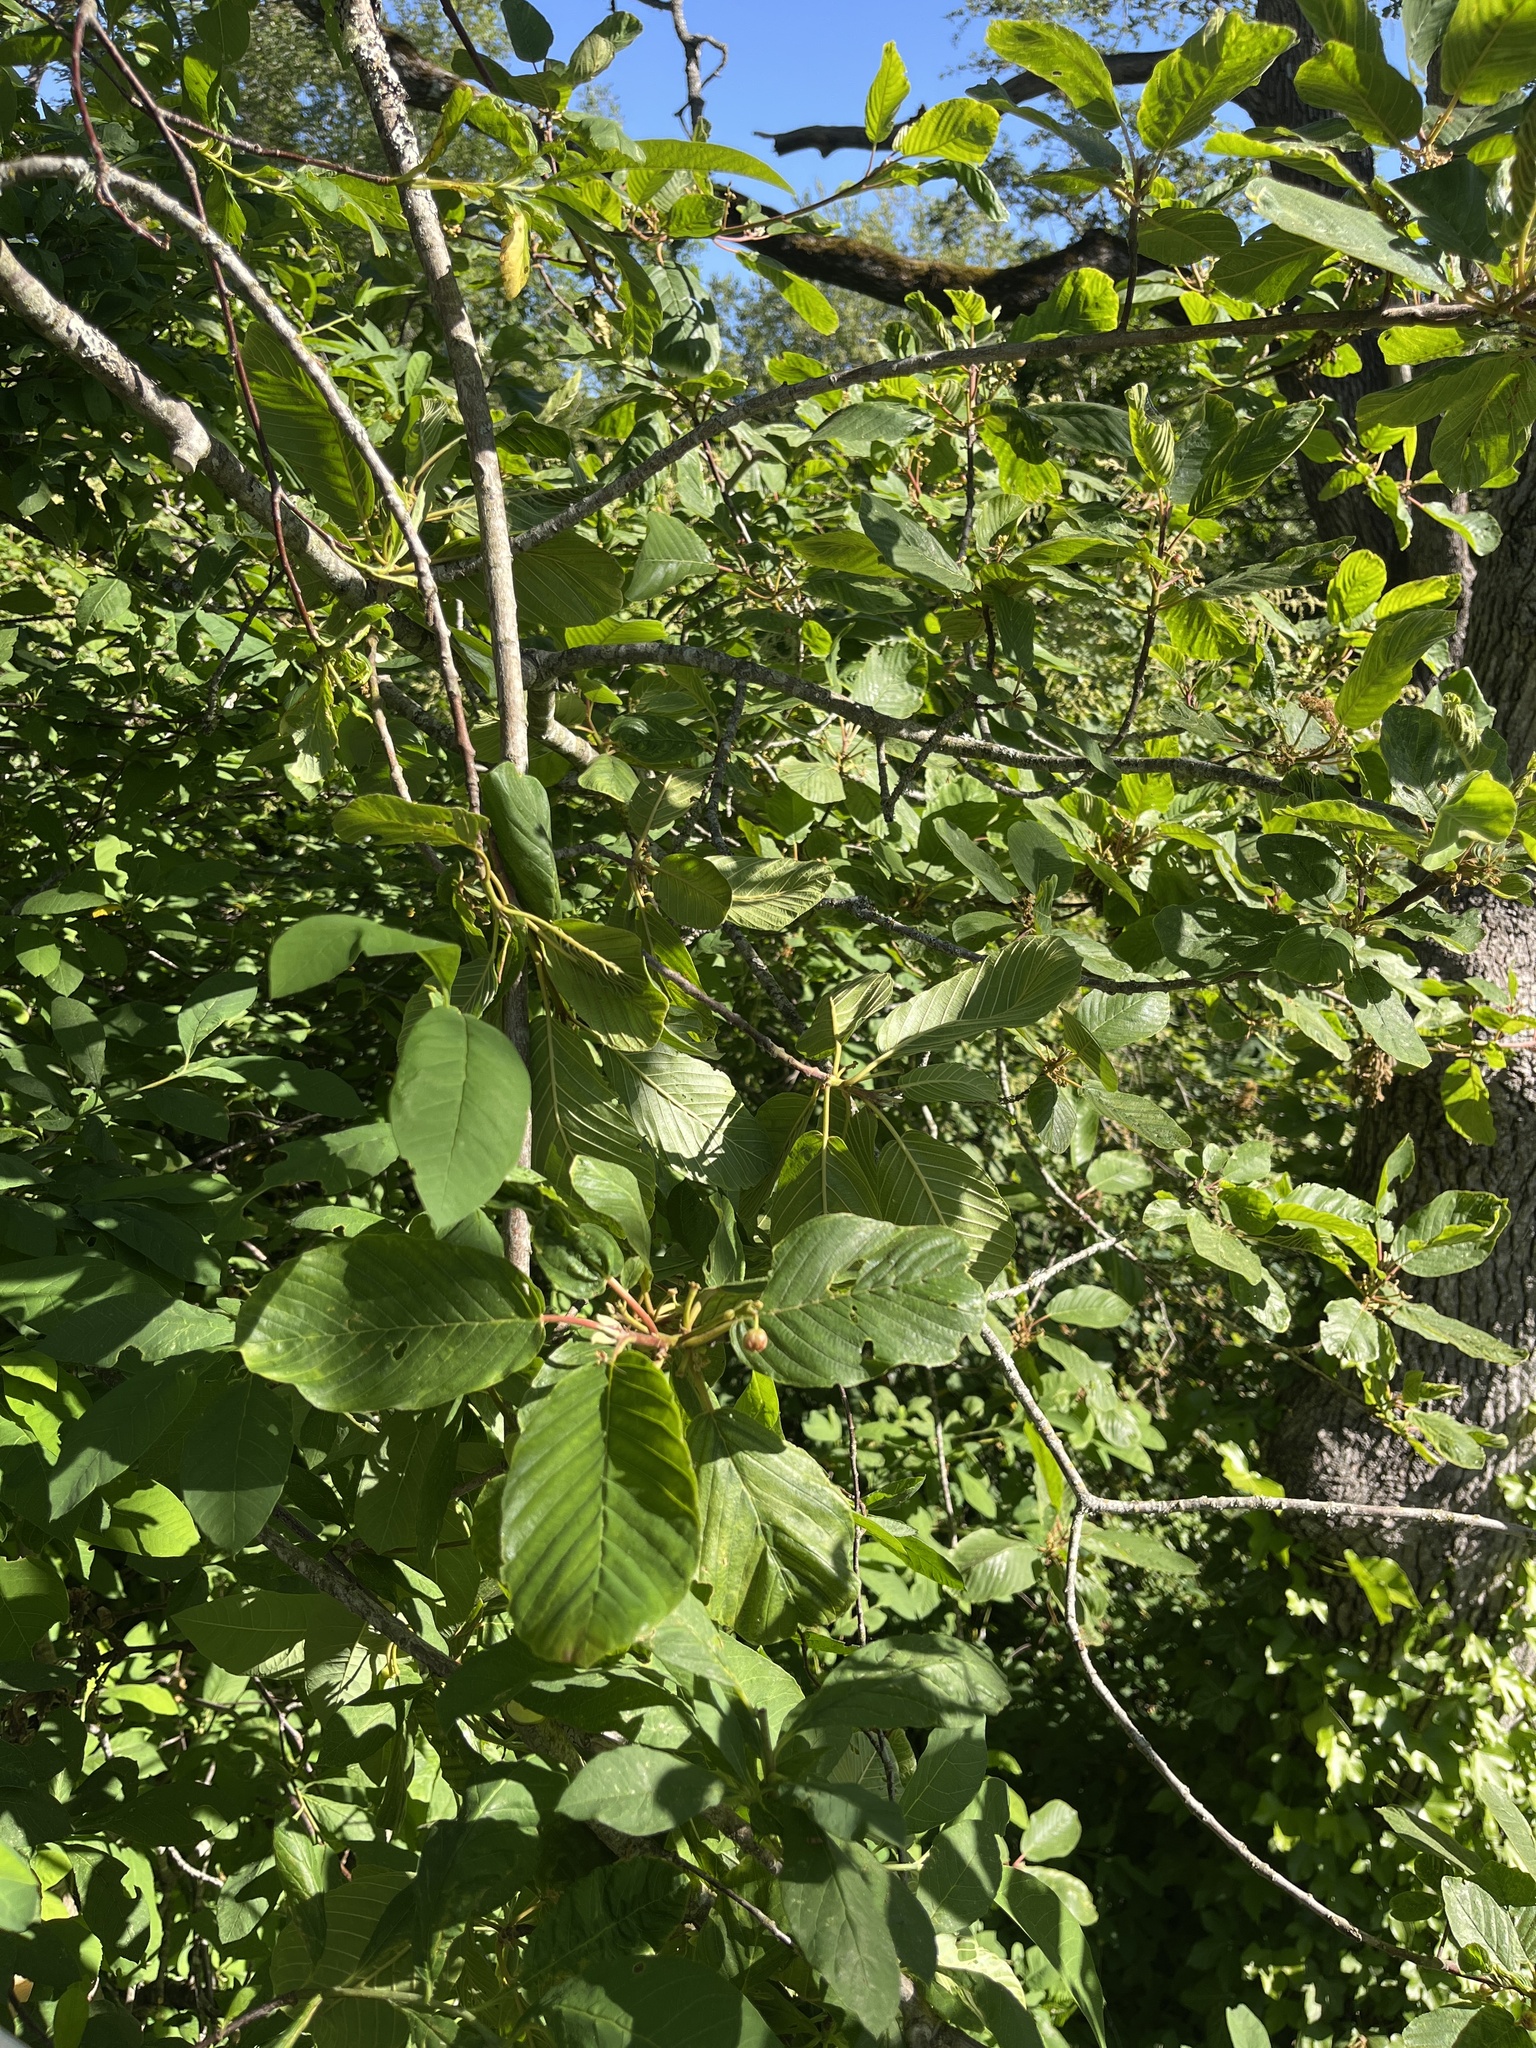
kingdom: Plantae
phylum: Tracheophyta
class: Magnoliopsida
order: Rosales
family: Rhamnaceae
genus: Frangula
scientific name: Frangula purshiana
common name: Cascara buckthorn
